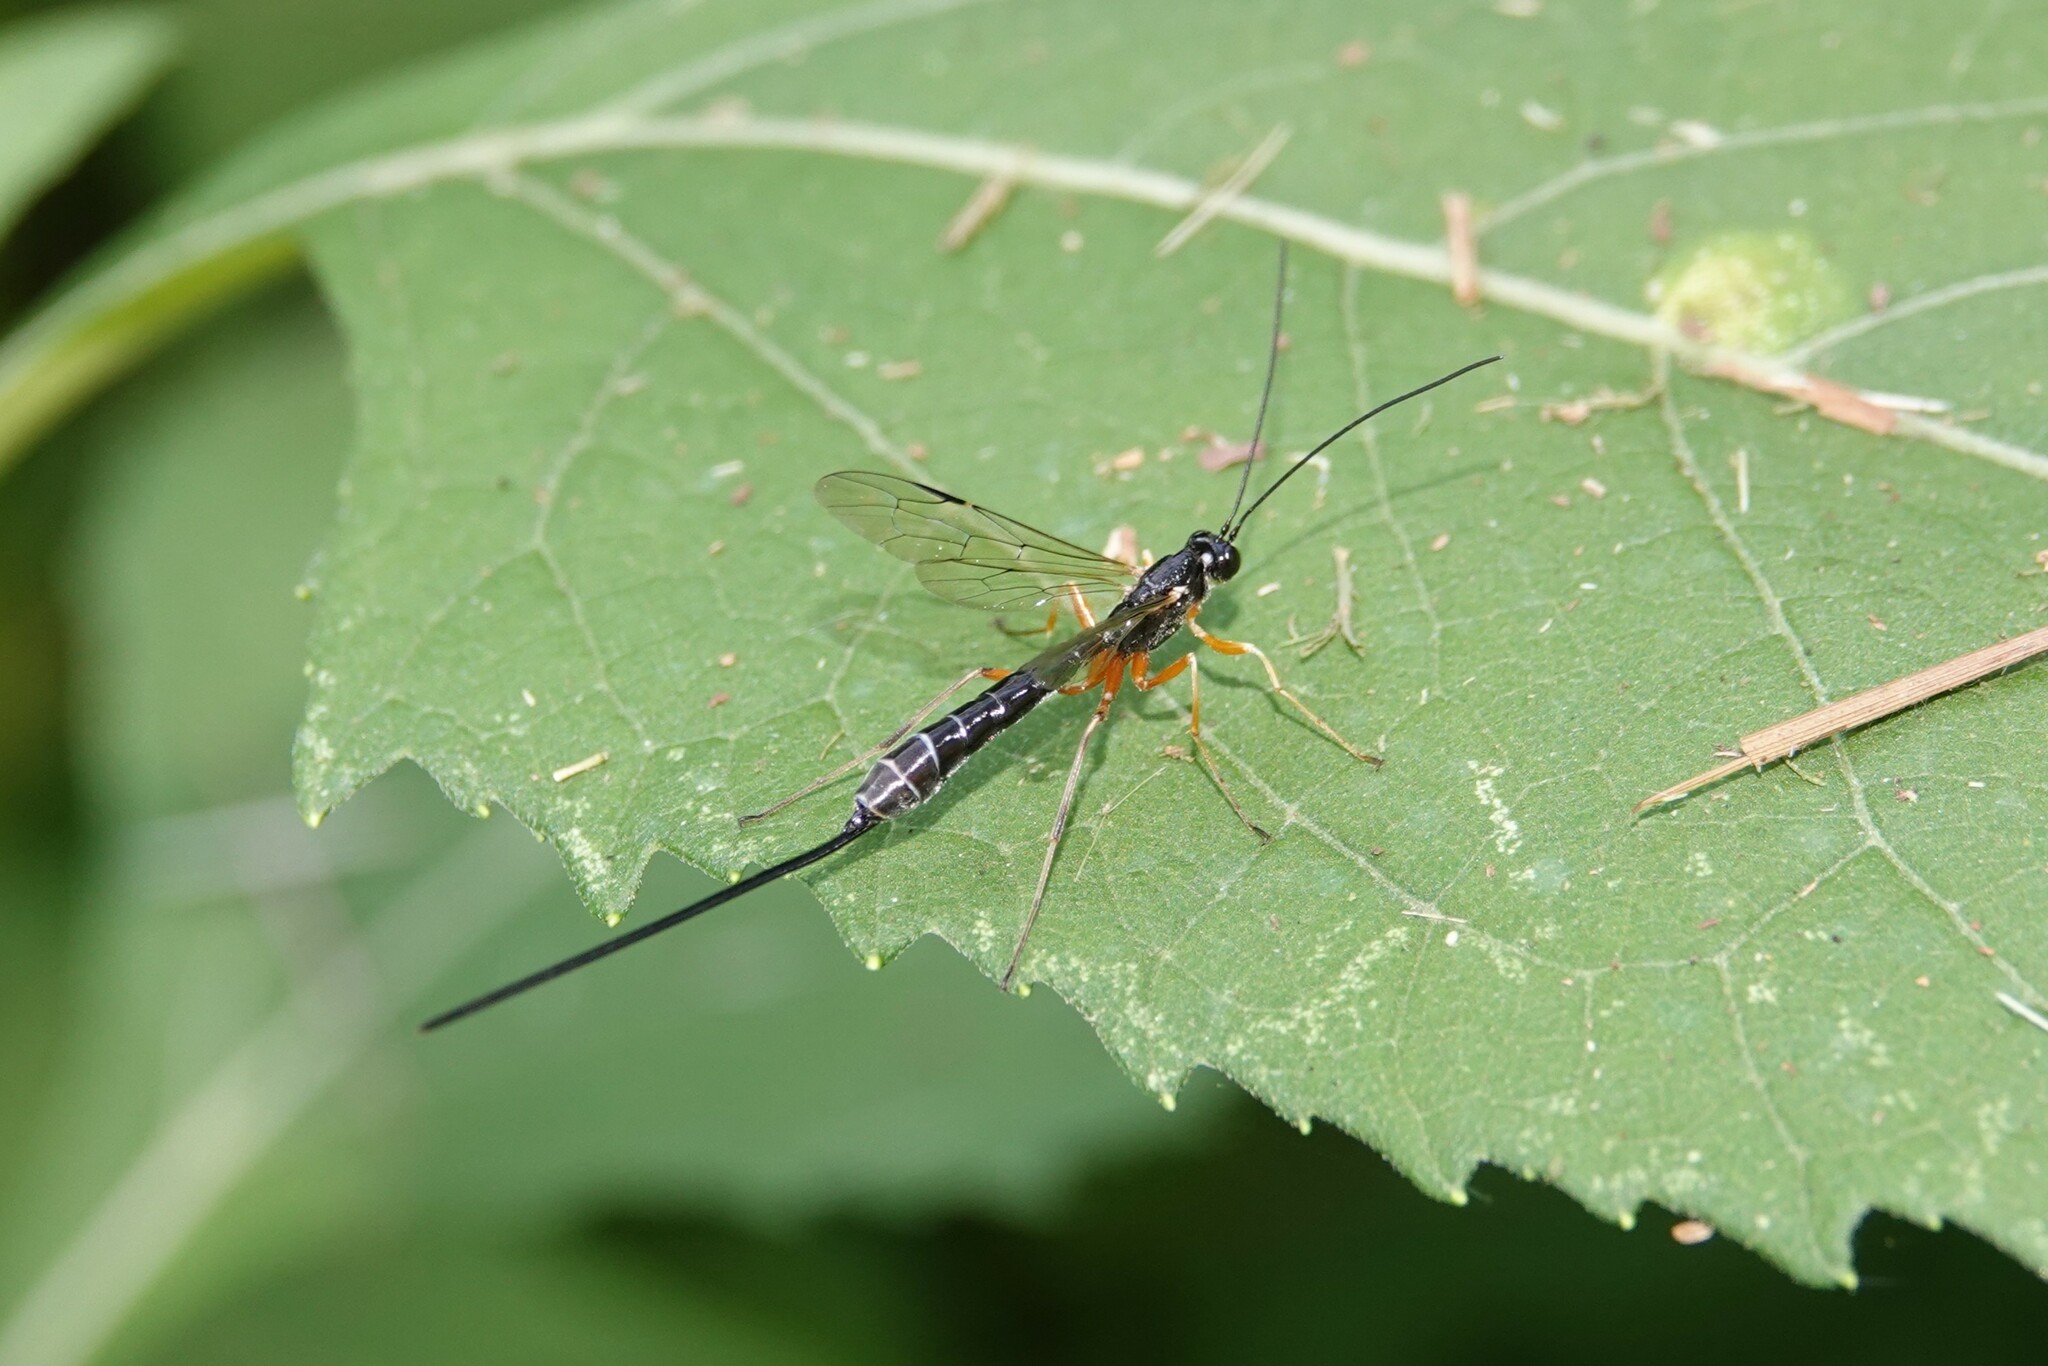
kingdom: Animalia
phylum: Arthropoda
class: Insecta
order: Hymenoptera
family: Ichneumonidae
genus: Rhyssella
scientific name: Rhyssella nitida
